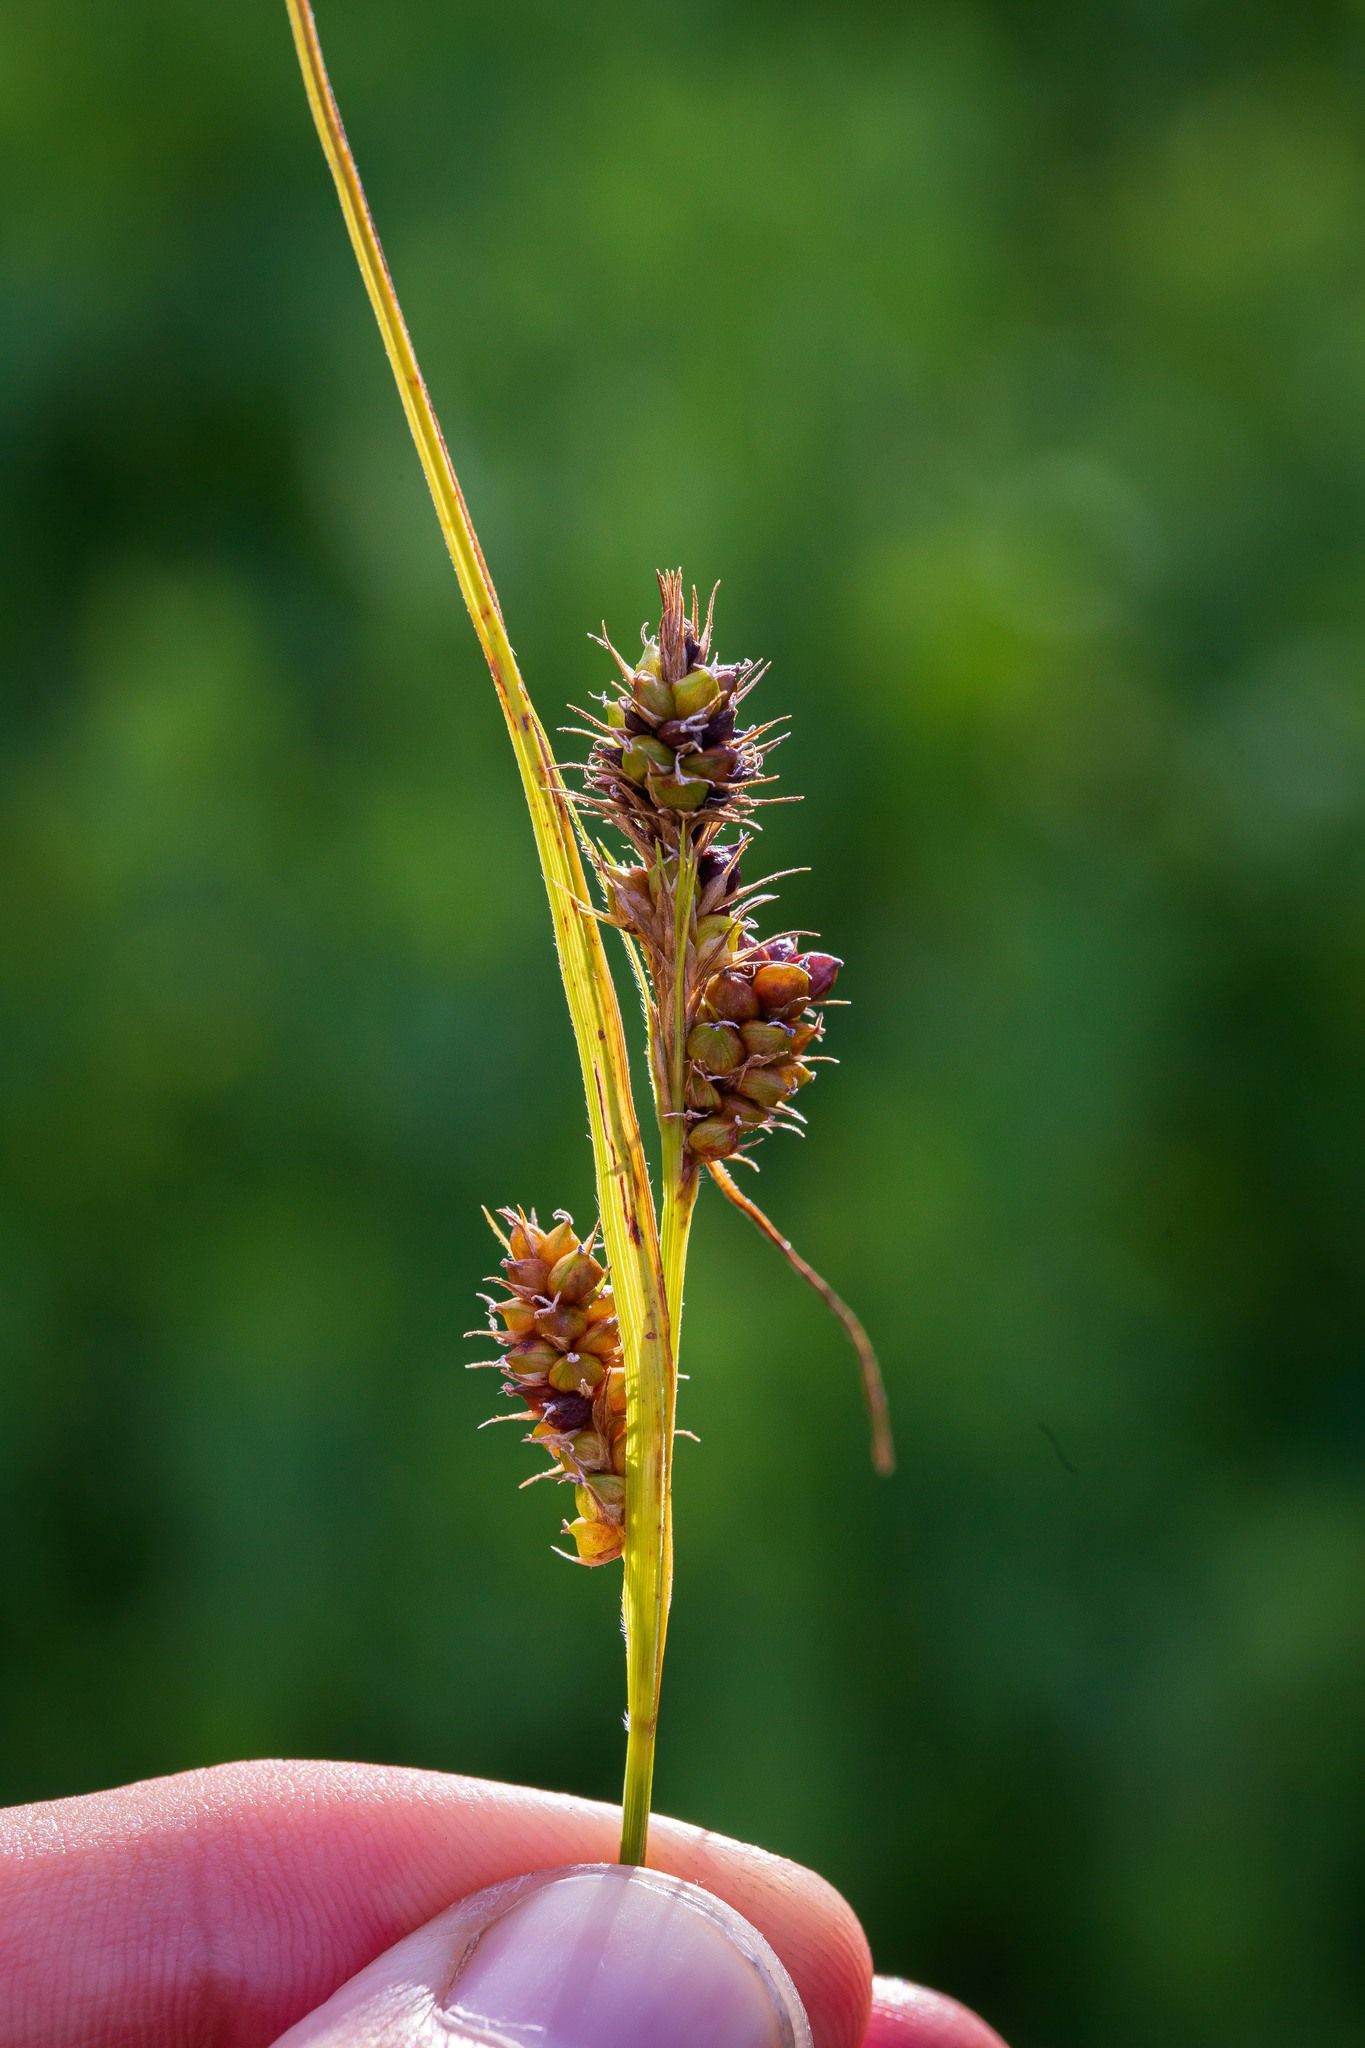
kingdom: Plantae
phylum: Tracheophyta
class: Liliopsida
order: Poales
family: Cyperaceae
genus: Carex
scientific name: Carex bushii
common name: Bush's sedge
